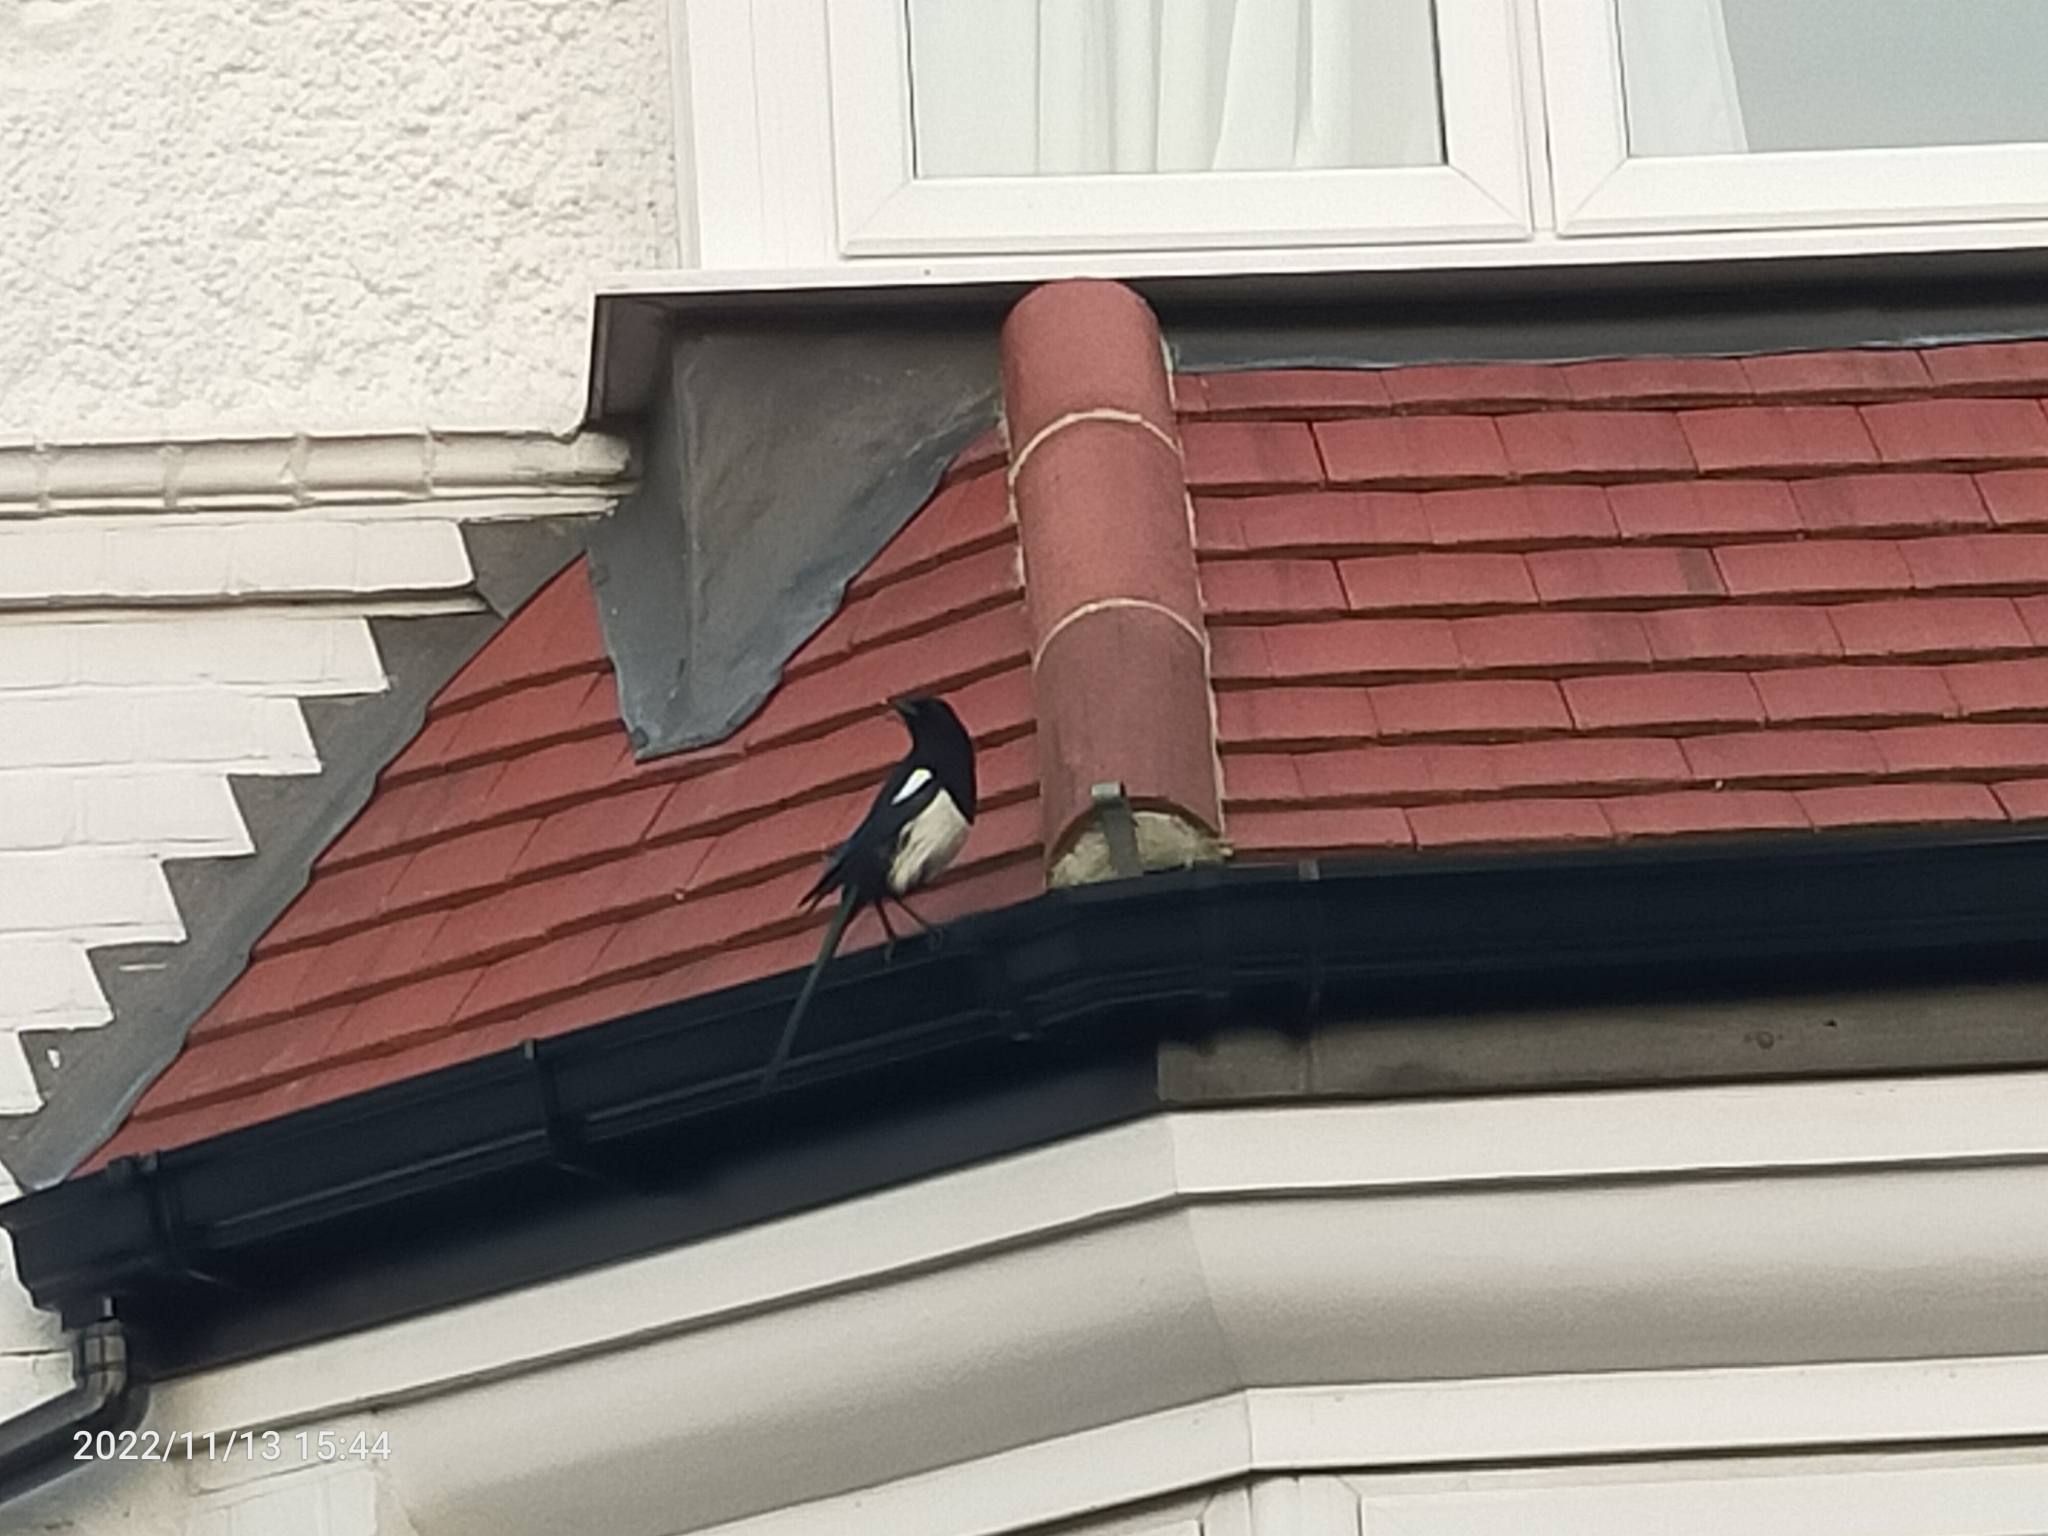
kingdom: Animalia
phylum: Chordata
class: Aves
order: Passeriformes
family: Corvidae
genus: Pica
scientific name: Pica pica
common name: Eurasian magpie
